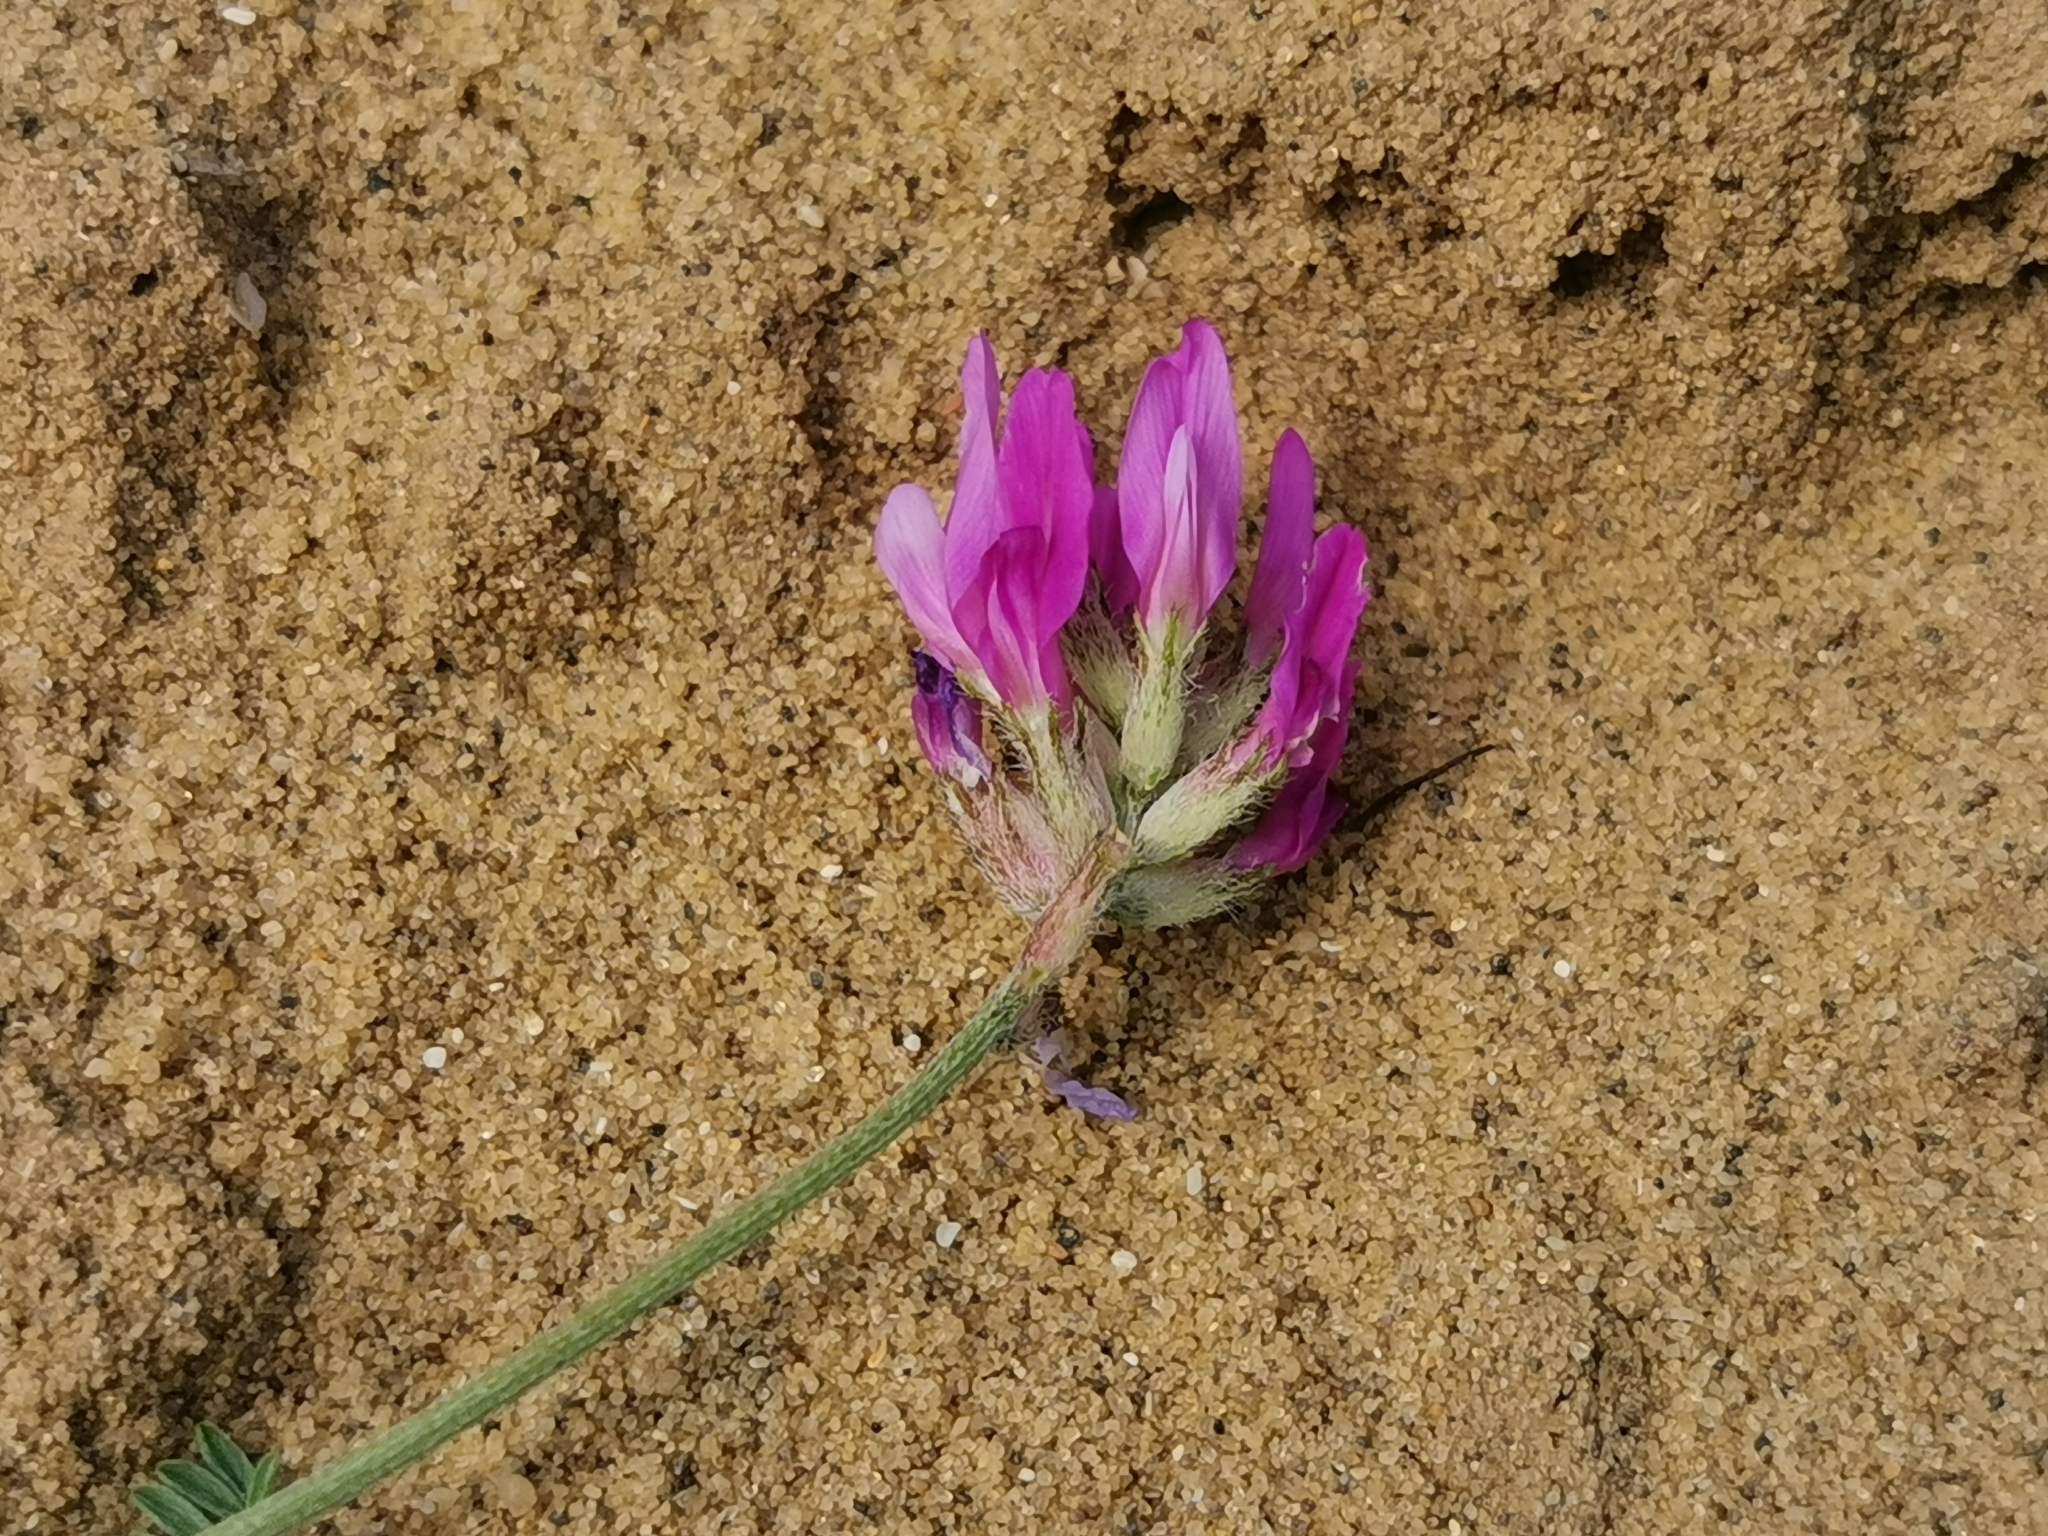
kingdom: Plantae
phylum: Tracheophyta
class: Magnoliopsida
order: Fabales
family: Fabaceae
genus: Astragalus
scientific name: Astragalus onobrychis
